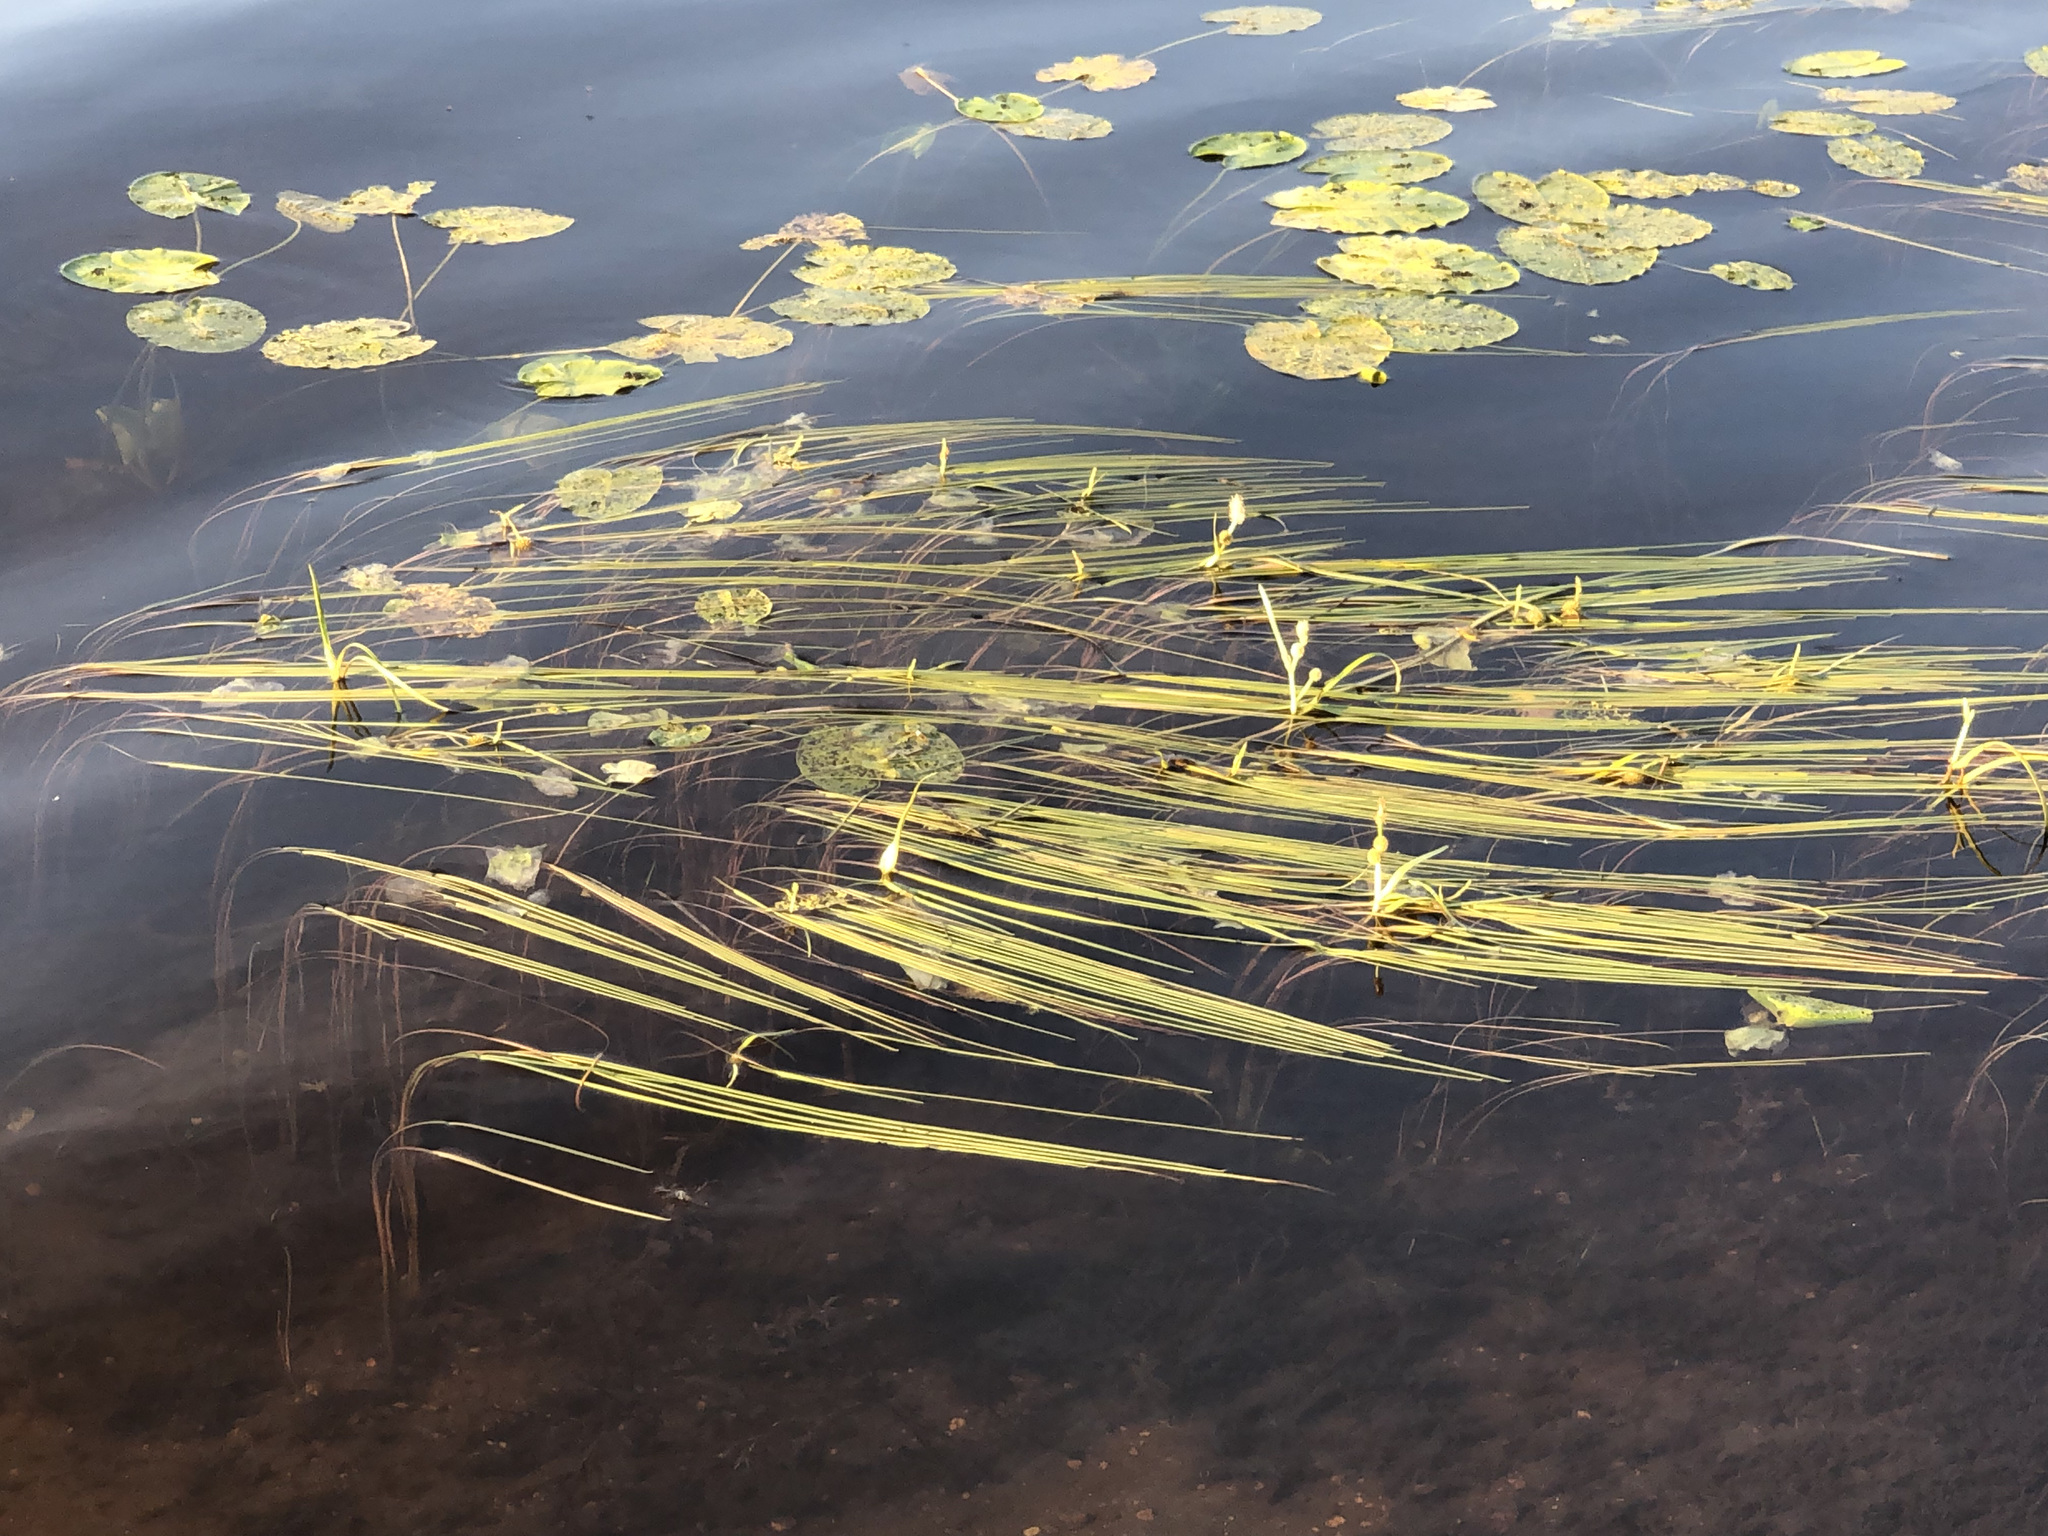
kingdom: Plantae
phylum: Tracheophyta
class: Liliopsida
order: Poales
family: Typhaceae
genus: Sparganium
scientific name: Sparganium angustifolium
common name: Floating bur-reed
